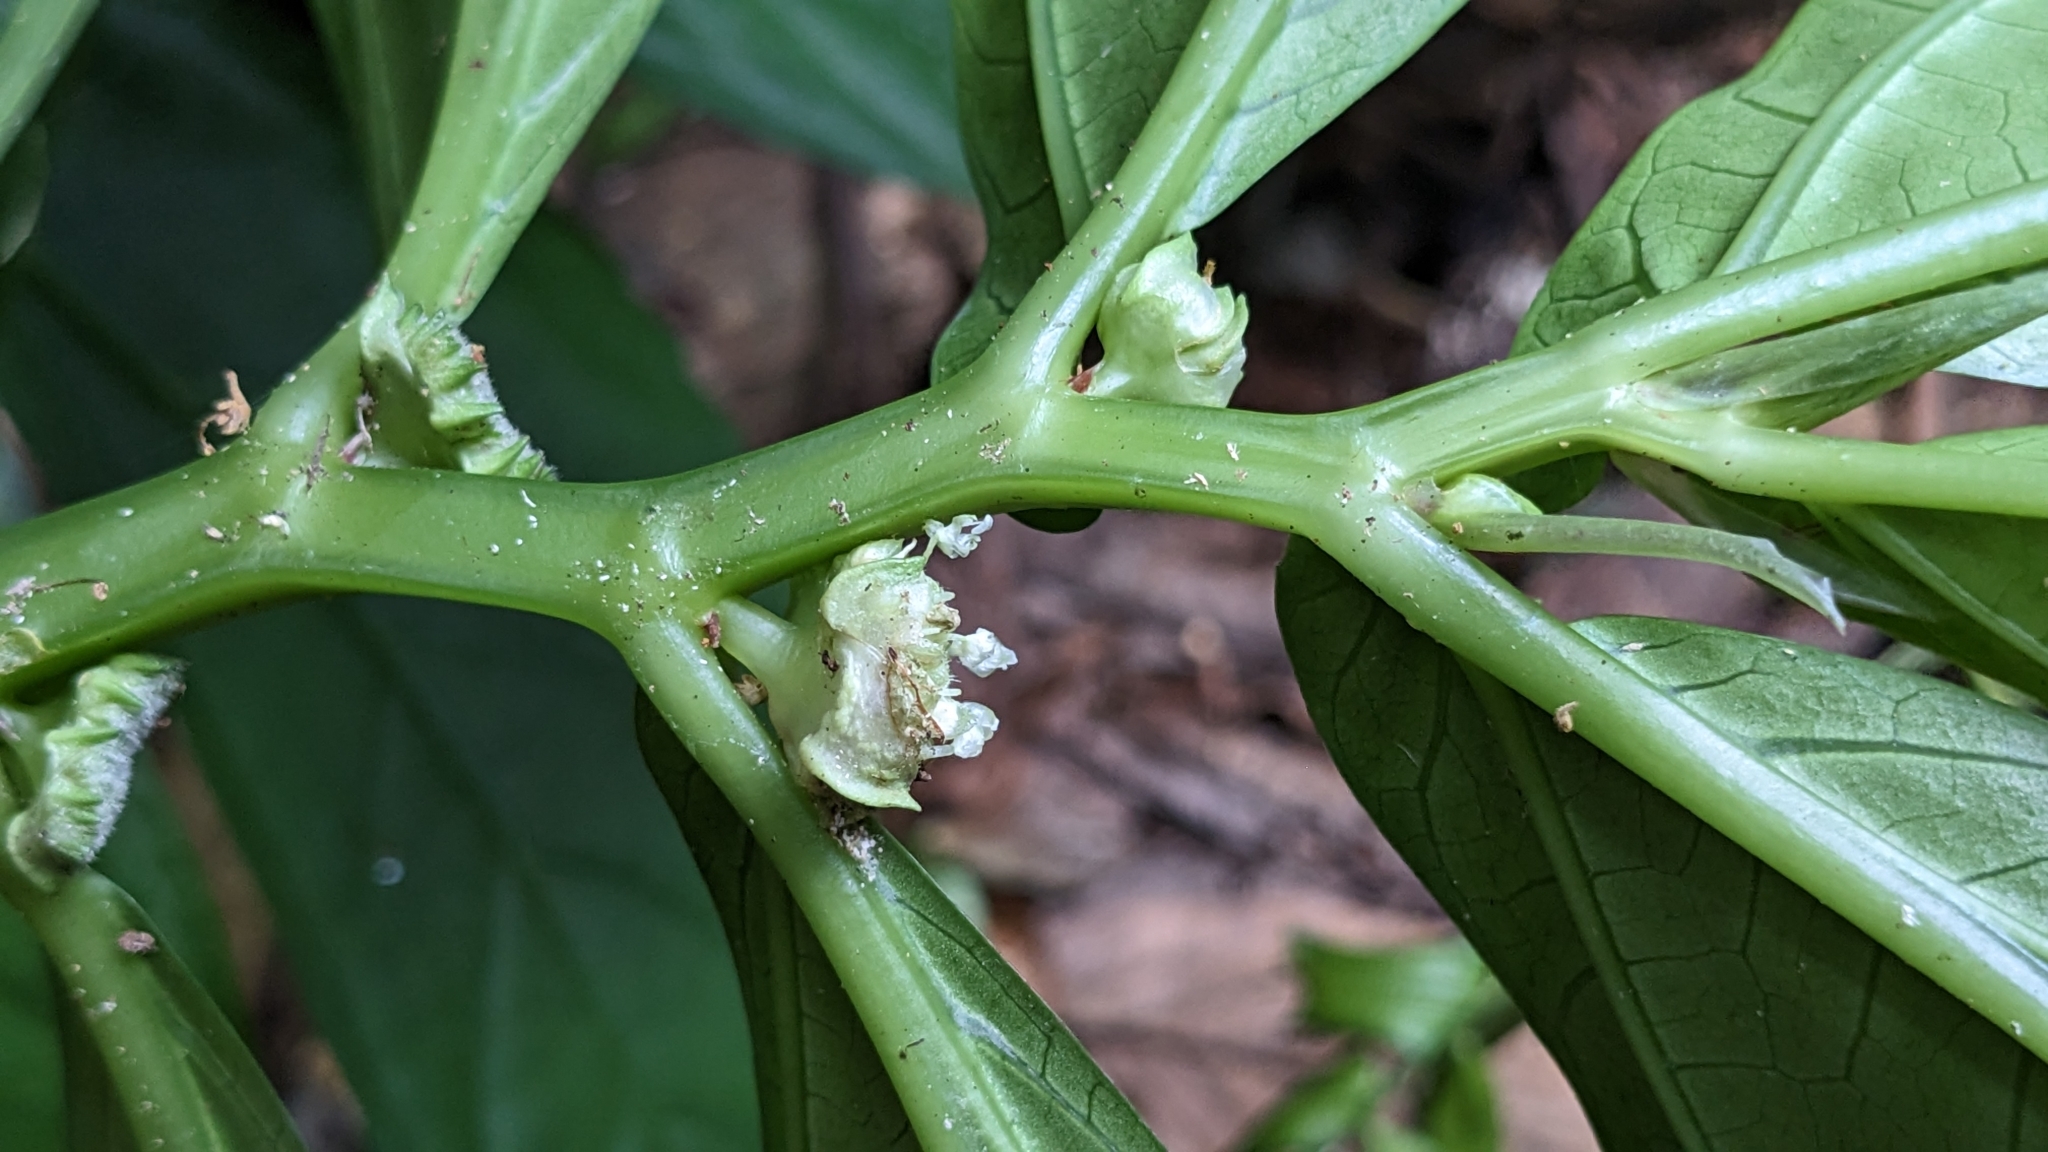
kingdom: Plantae
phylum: Tracheophyta
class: Magnoliopsida
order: Rosales
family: Urticaceae
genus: Elatostema
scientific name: Elatostema platyphyllum
